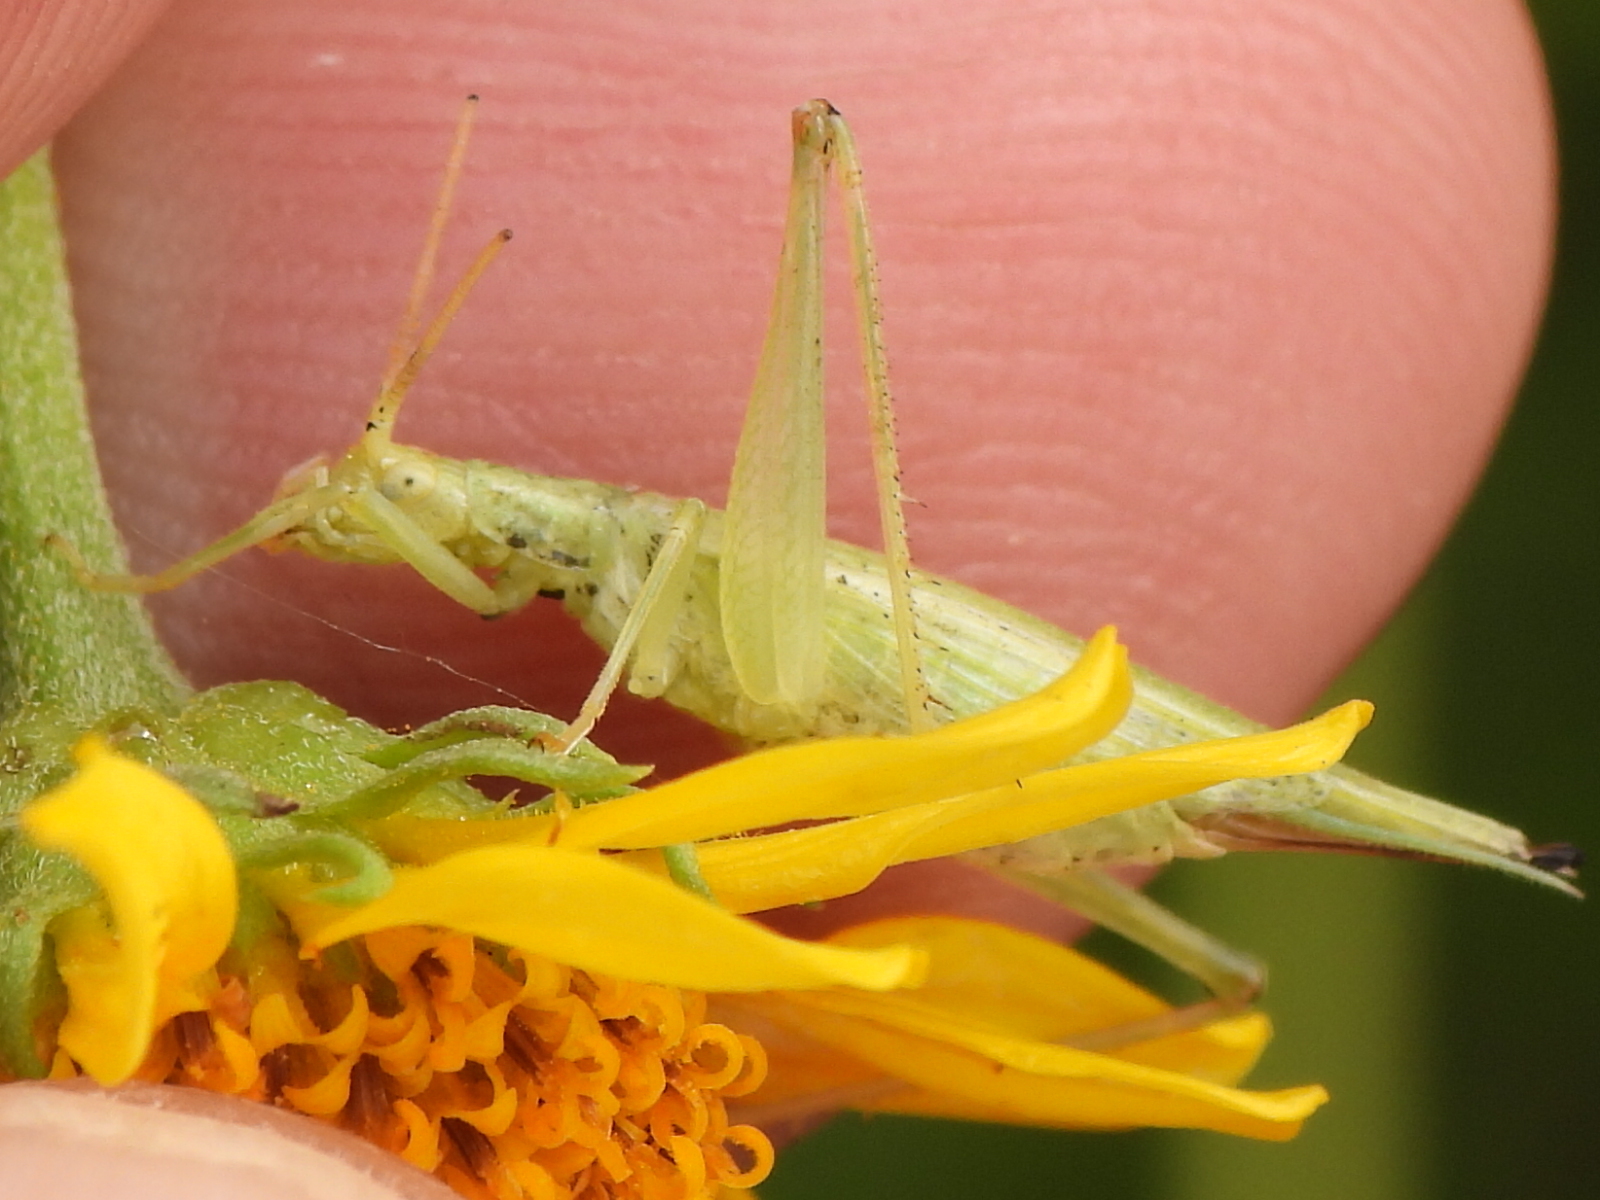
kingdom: Animalia
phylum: Arthropoda
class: Insecta
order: Orthoptera
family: Gryllidae
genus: Oecanthus
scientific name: Oecanthus celerinictus
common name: Fast-calling tree cricket
